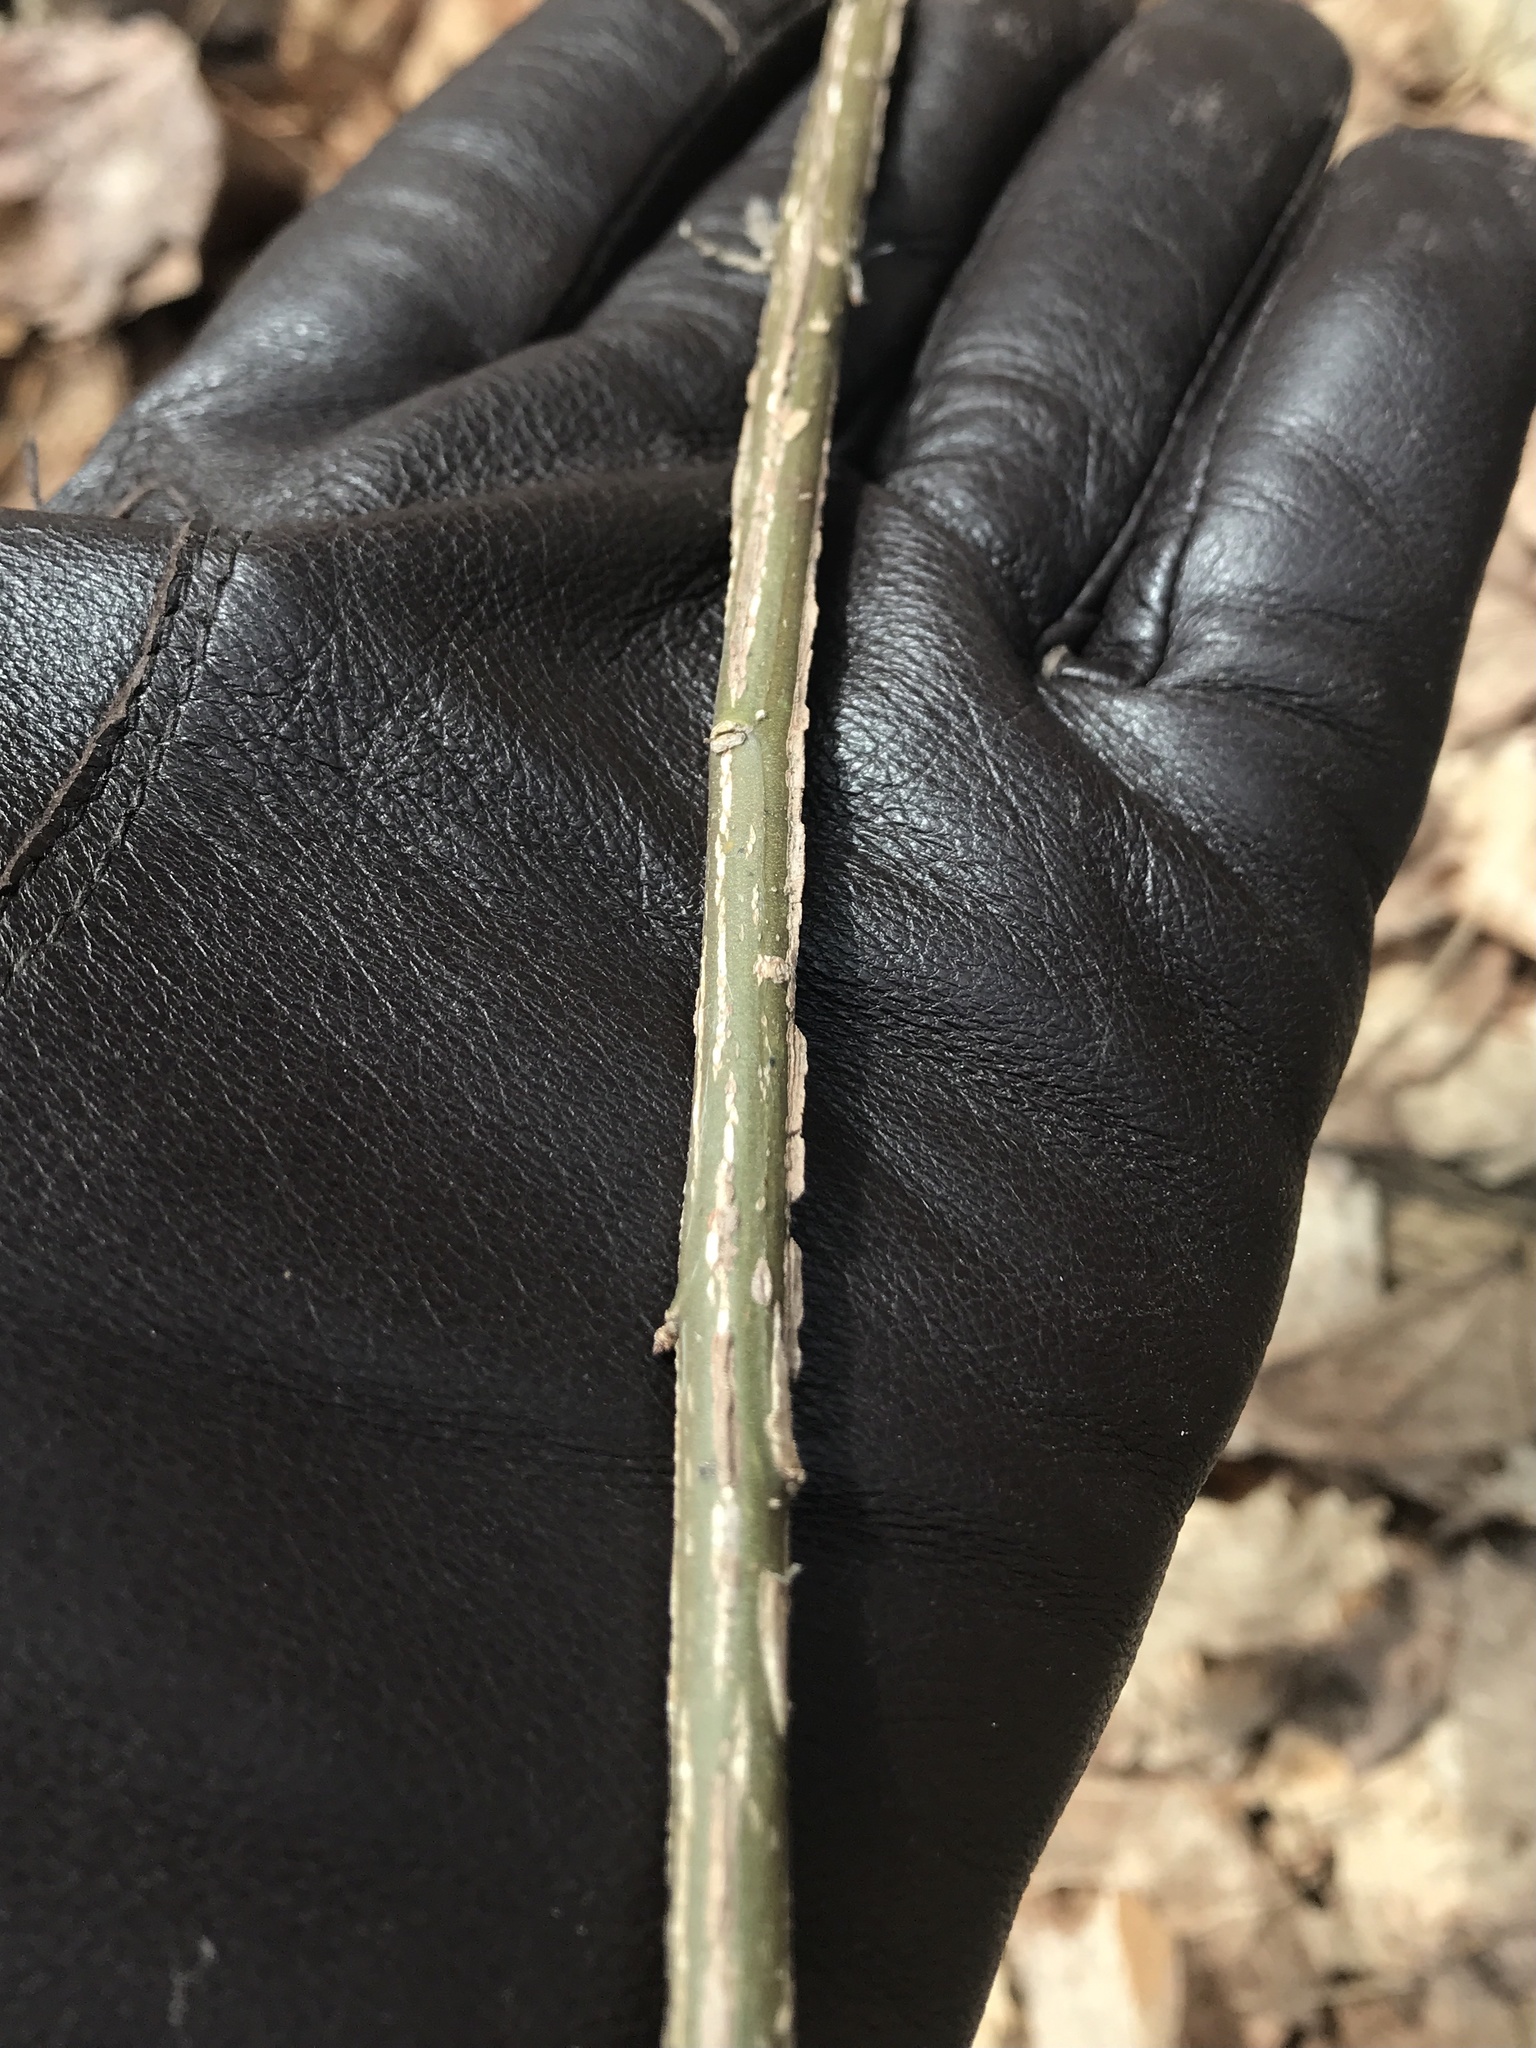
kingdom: Plantae
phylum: Tracheophyta
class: Magnoliopsida
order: Celastrales
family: Celastraceae
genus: Euonymus
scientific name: Euonymus alatus
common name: Winged euonymus
